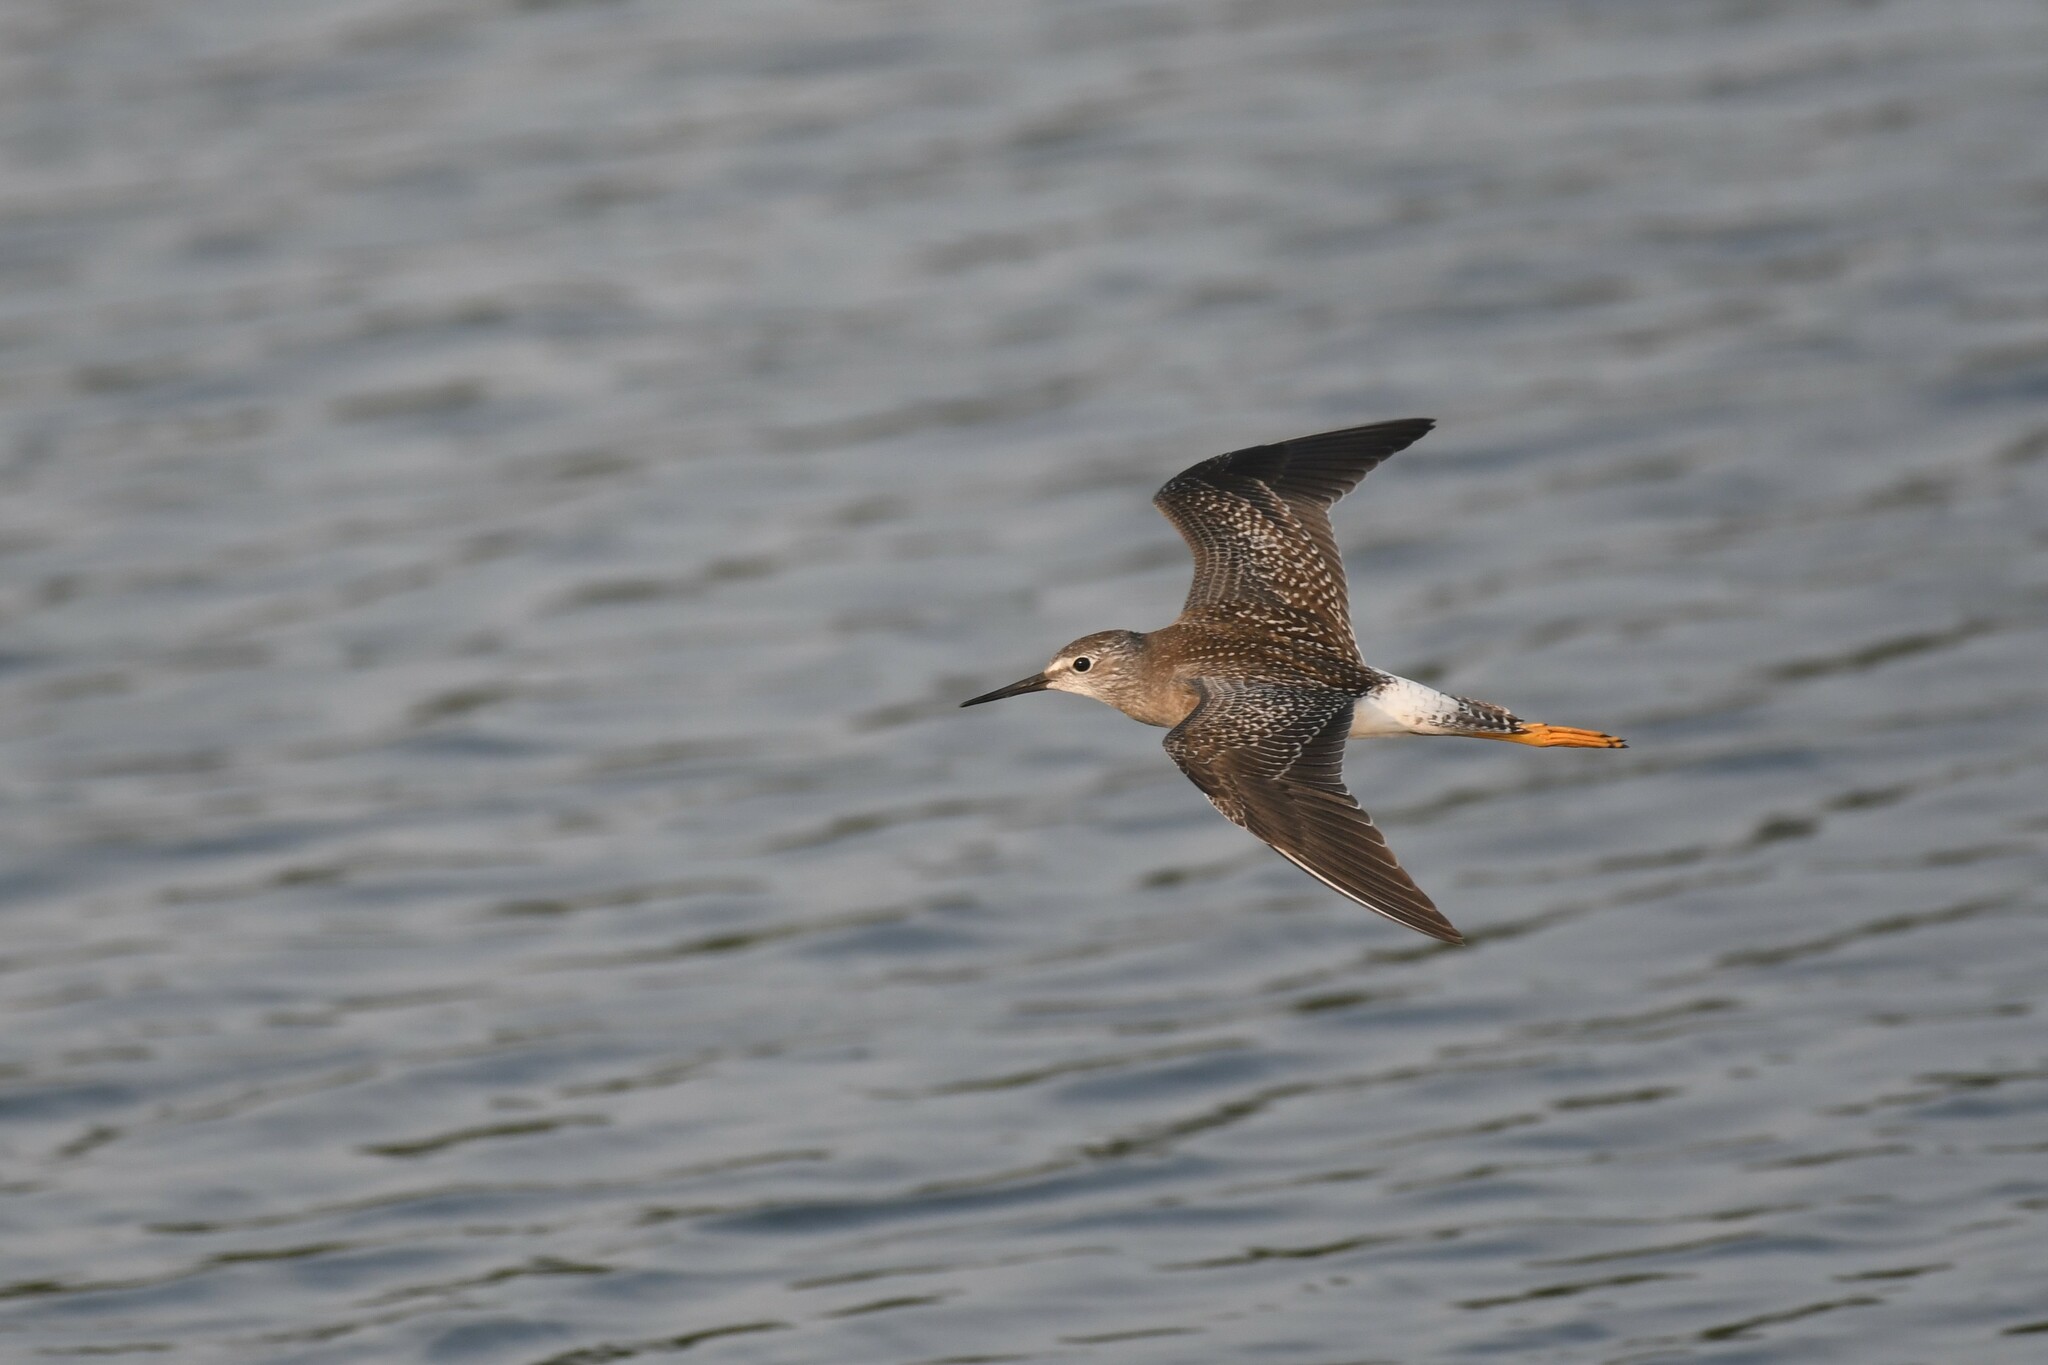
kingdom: Animalia
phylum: Chordata
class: Aves
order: Charadriiformes
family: Scolopacidae
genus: Tringa
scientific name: Tringa flavipes
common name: Lesser yellowlegs
